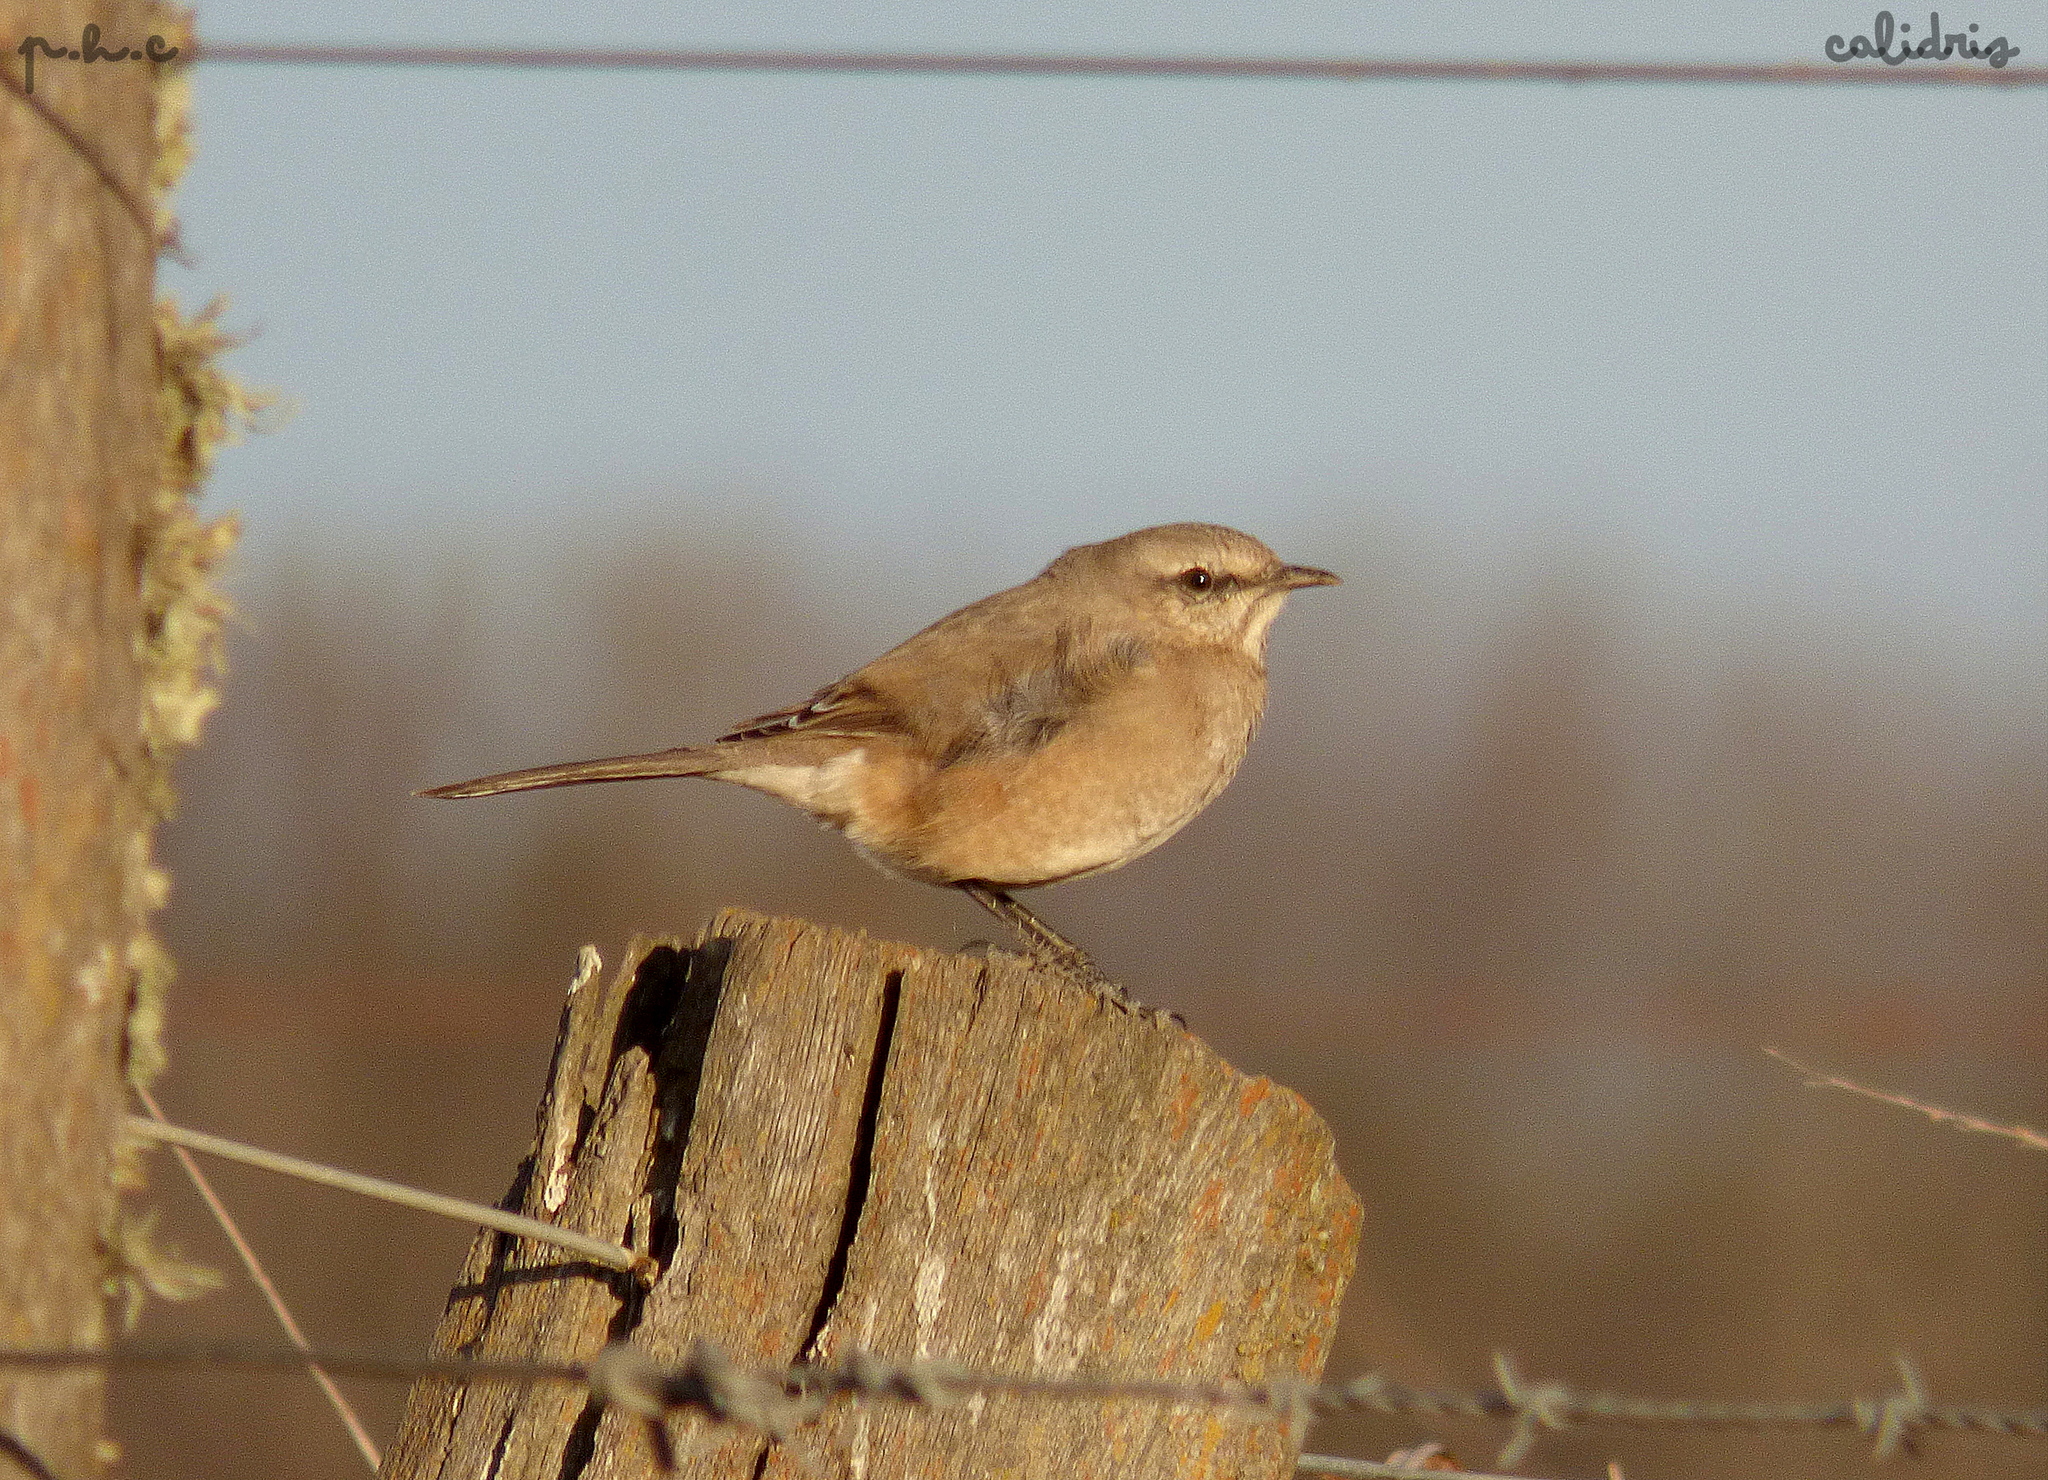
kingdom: Animalia
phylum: Chordata
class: Aves
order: Passeriformes
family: Mimidae
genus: Mimus
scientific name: Mimus patagonicus
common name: Patagonian mockingbird
